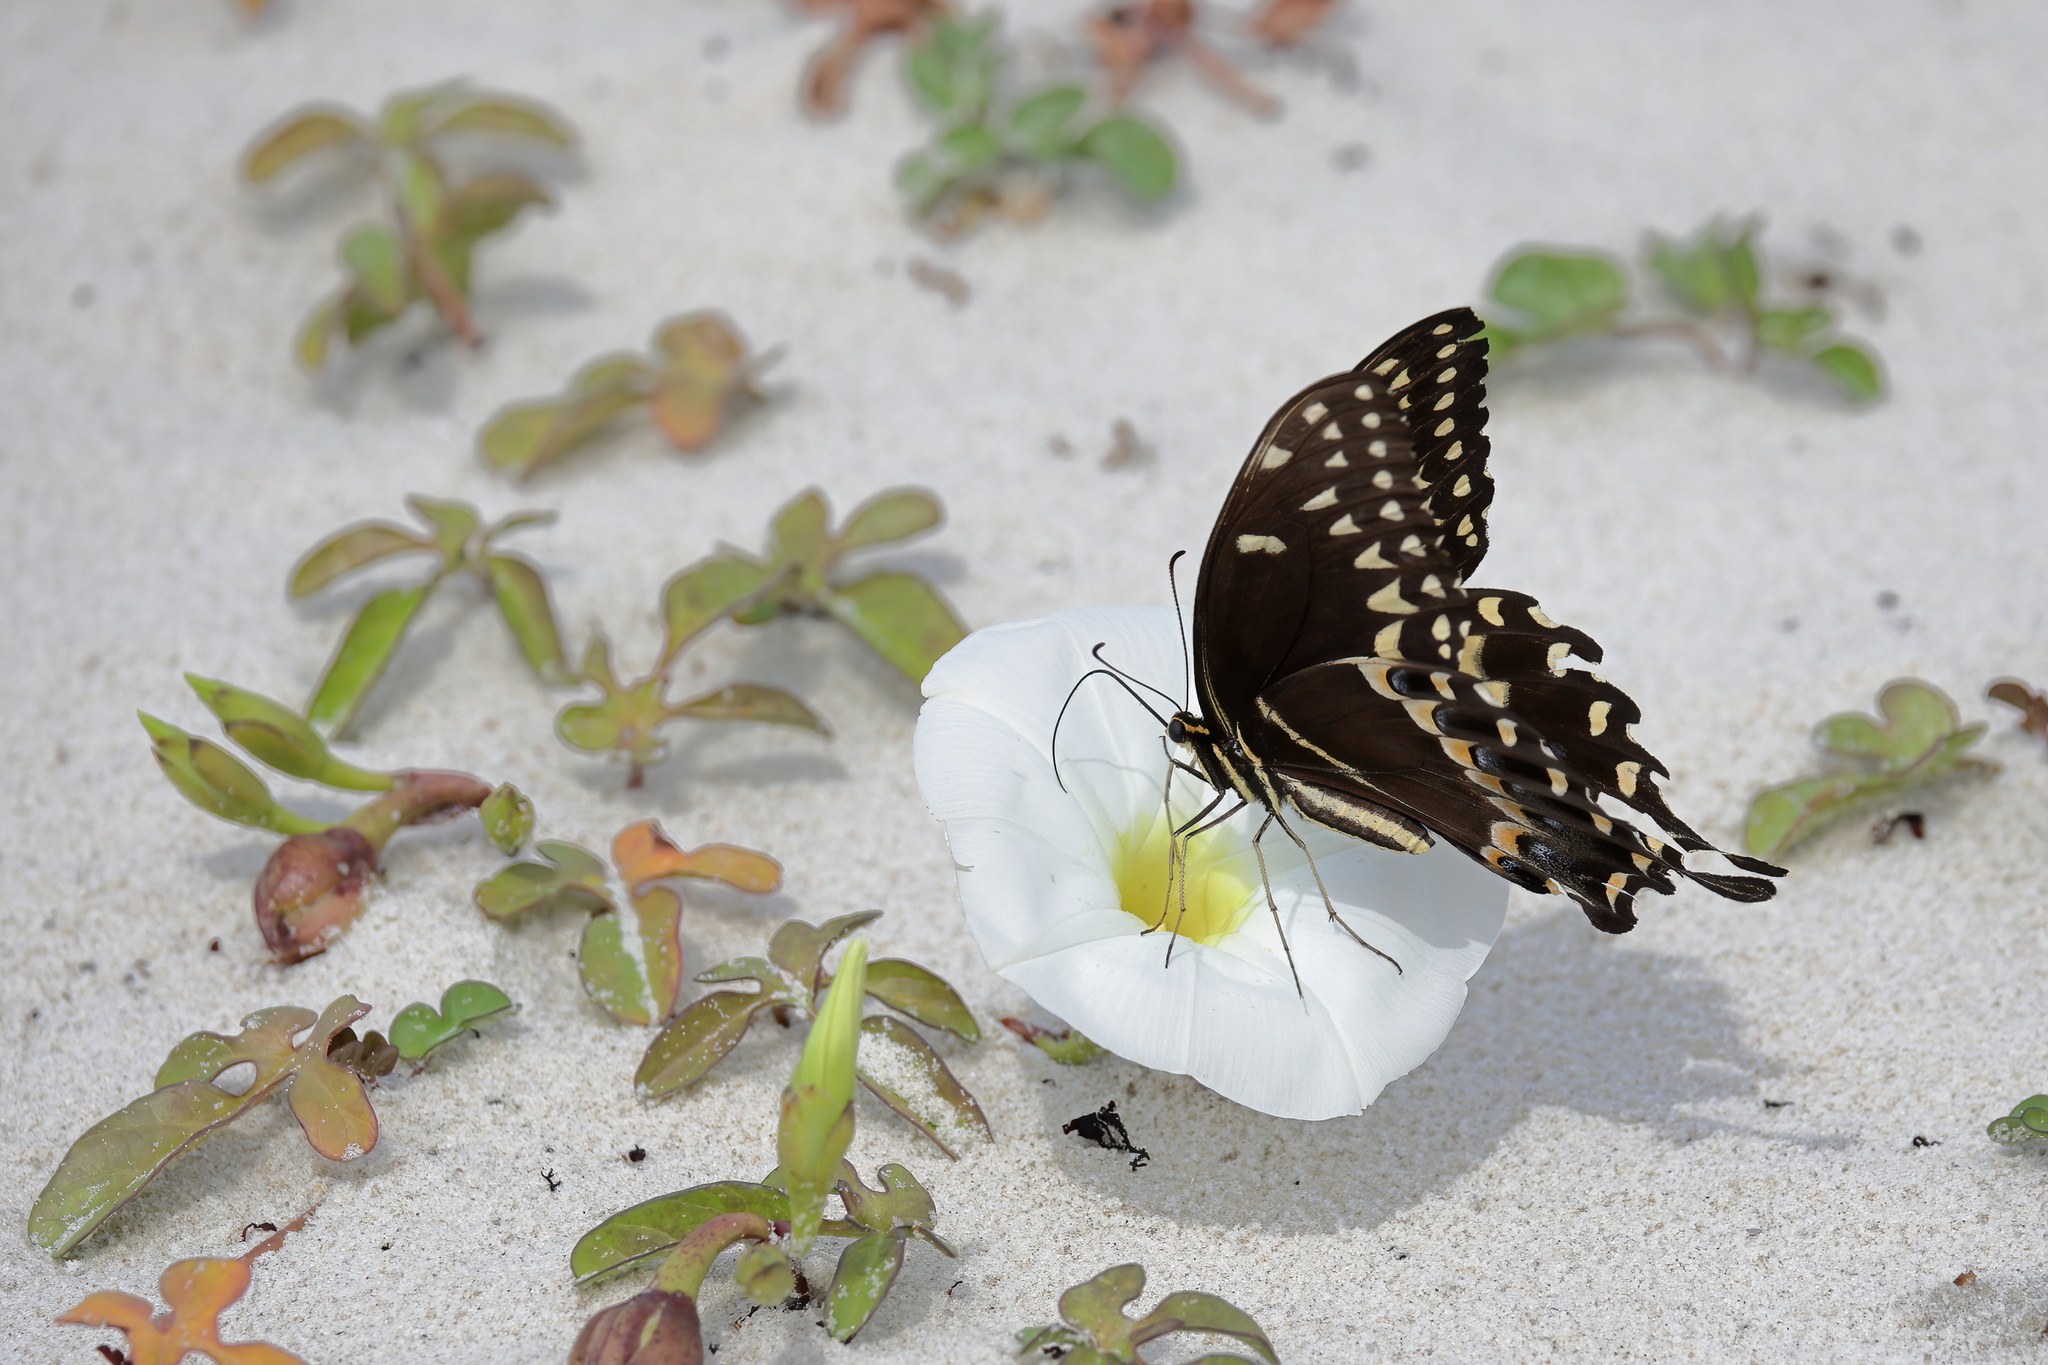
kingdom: Animalia
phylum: Arthropoda
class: Insecta
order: Lepidoptera
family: Papilionidae
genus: Papilio
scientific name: Papilio palamedes
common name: Palamedes swallowtail
